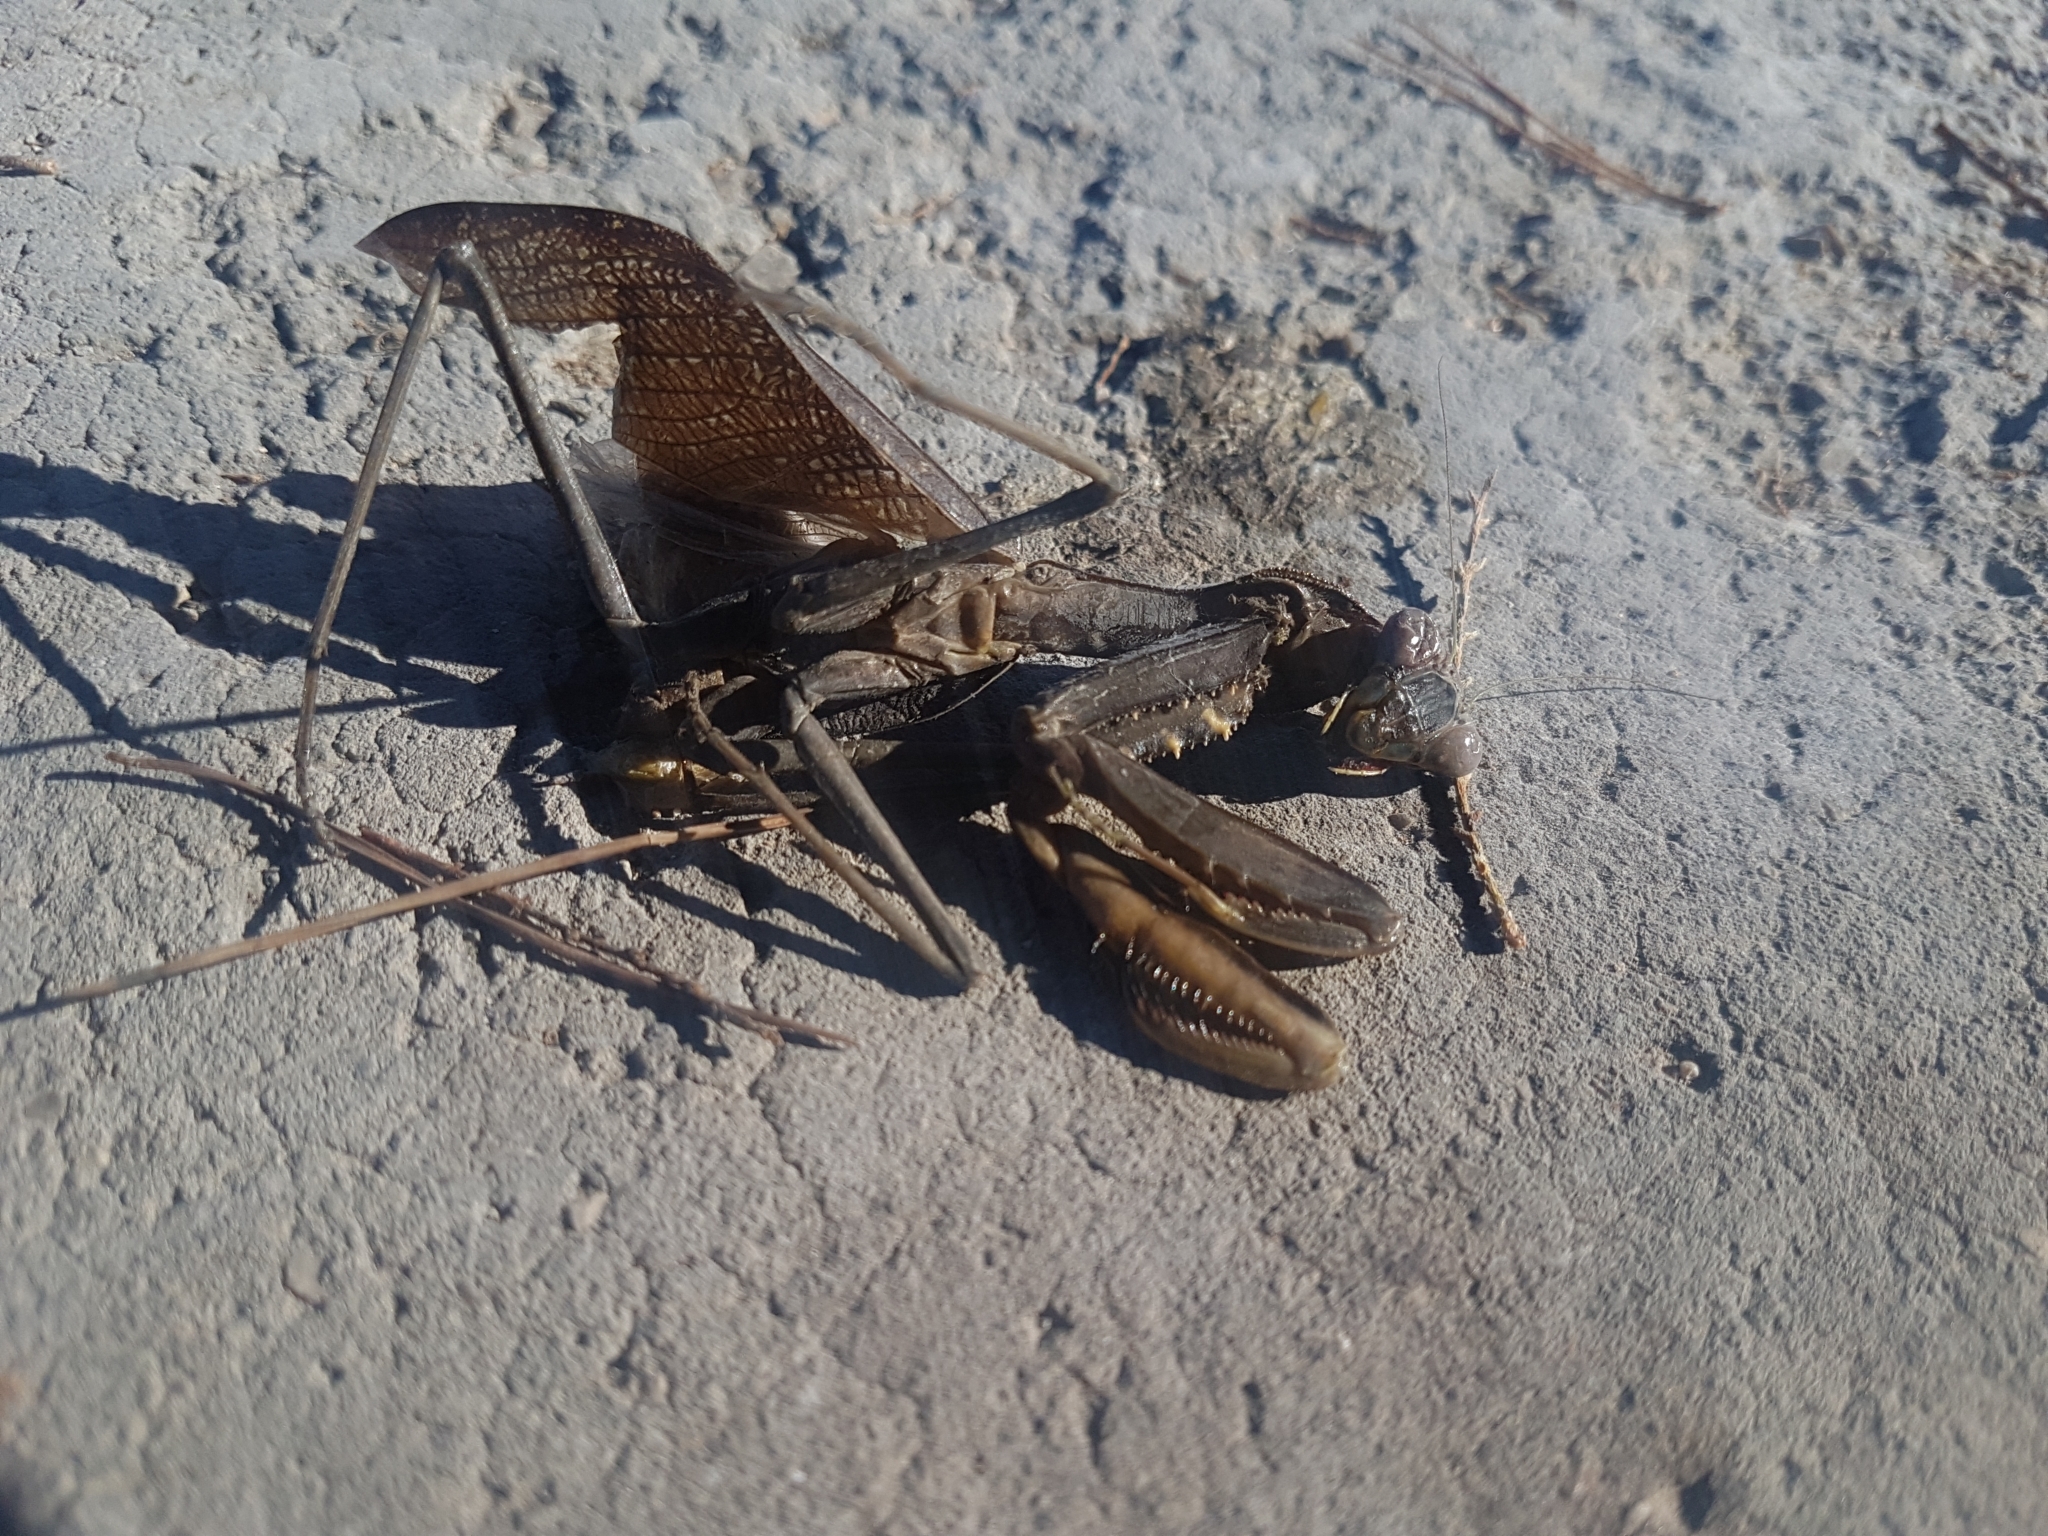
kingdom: Animalia
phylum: Arthropoda
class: Insecta
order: Mantodea
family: Mantidae
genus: Sphodromantis
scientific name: Sphodromantis viridis
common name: Giant african mantis
